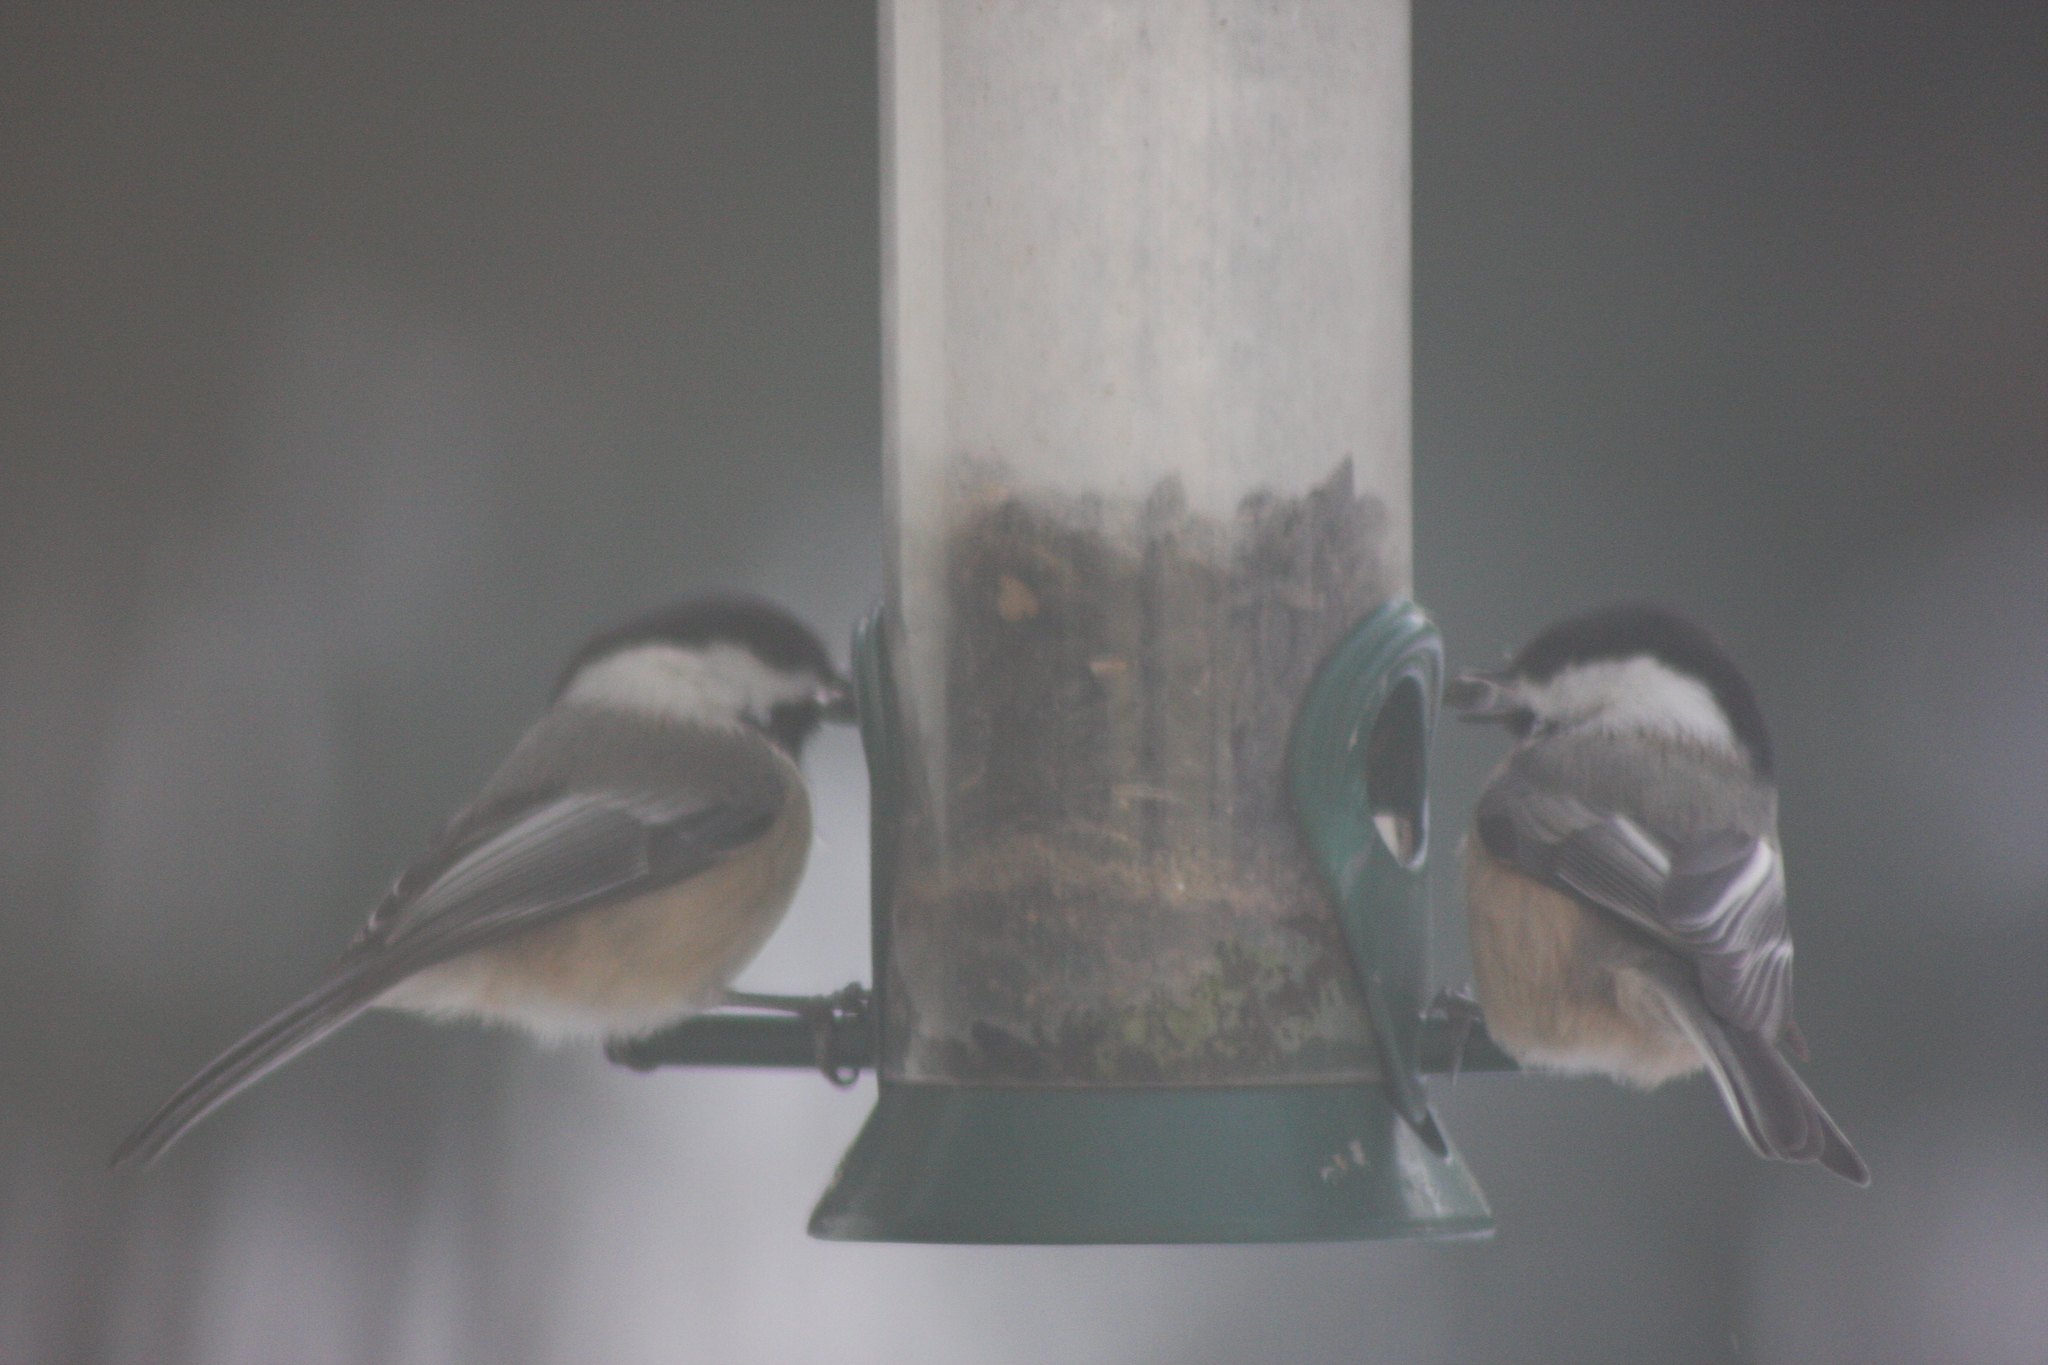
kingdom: Animalia
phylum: Chordata
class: Aves
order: Passeriformes
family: Paridae
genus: Poecile
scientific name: Poecile atricapillus
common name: Black-capped chickadee
